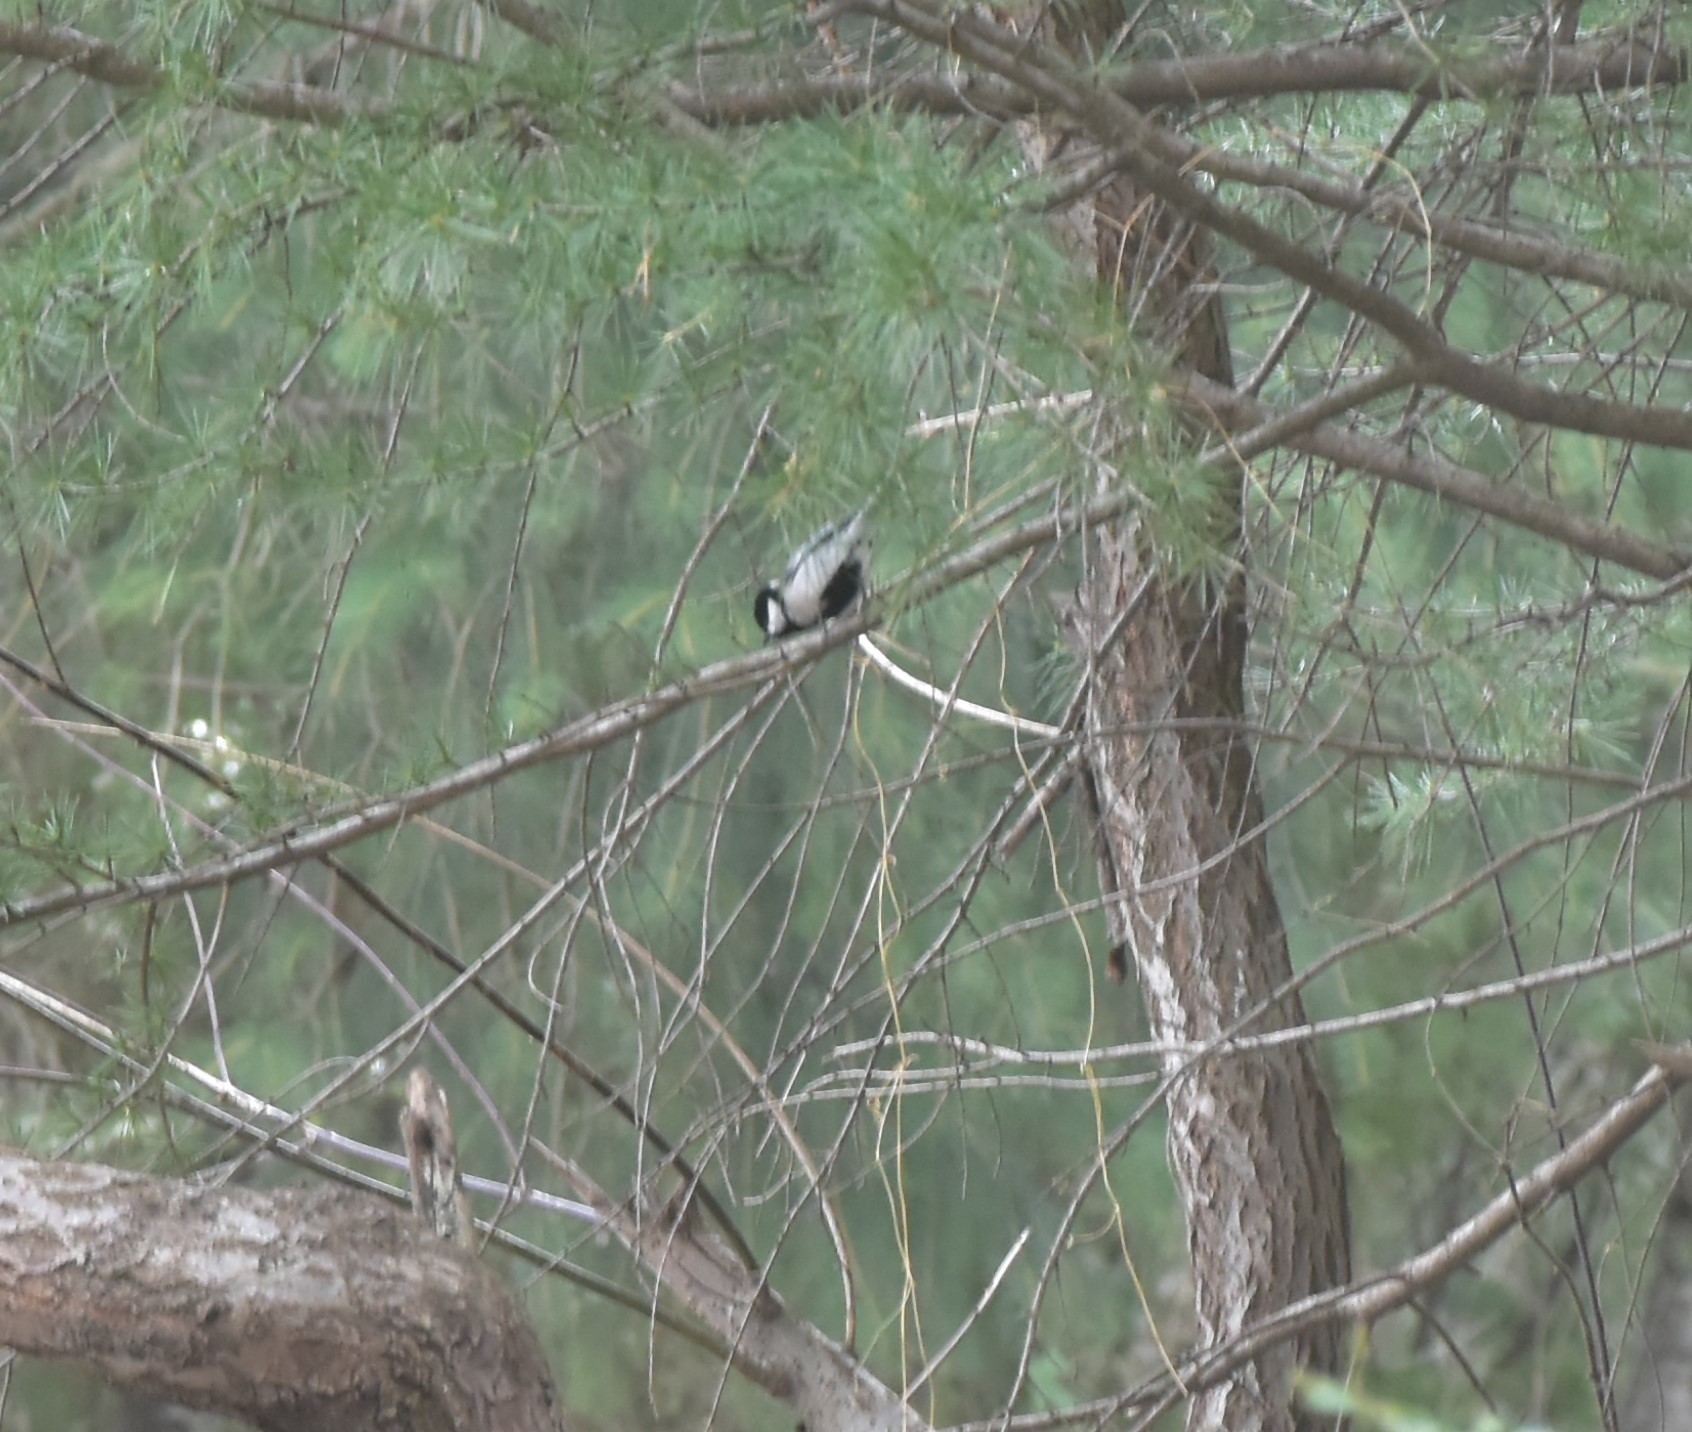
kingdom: Animalia
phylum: Chordata
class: Aves
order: Passeriformes
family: Paridae
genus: Parus
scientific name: Parus cinereus
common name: Cinereous tit
